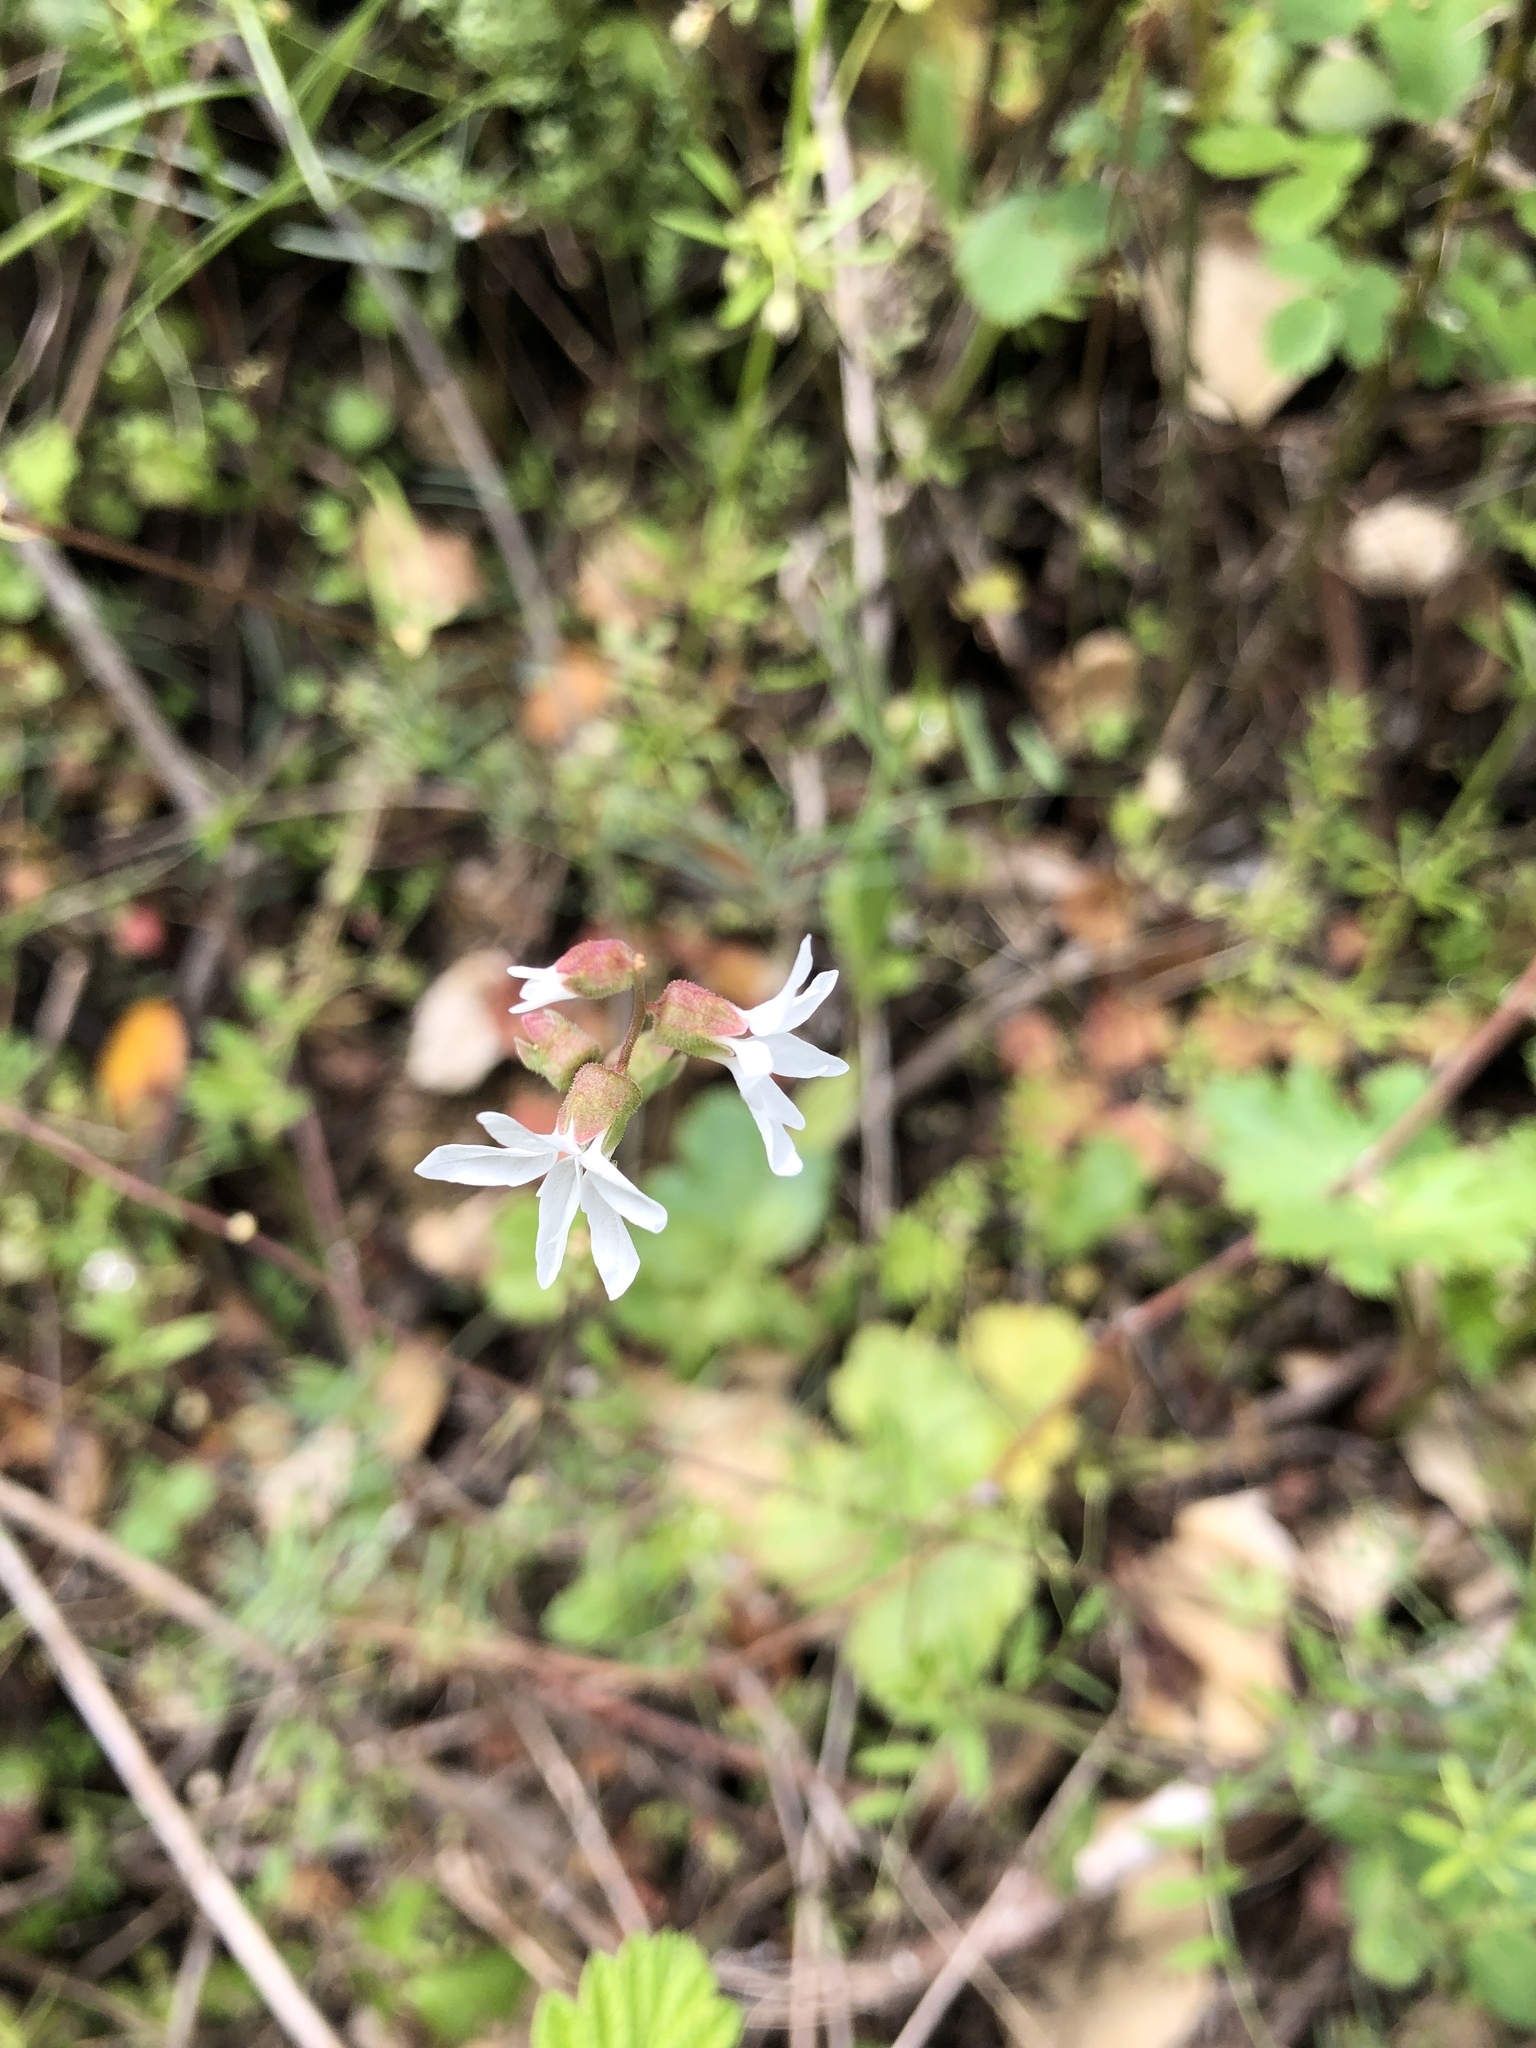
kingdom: Plantae
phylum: Tracheophyta
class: Magnoliopsida
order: Saxifragales
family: Saxifragaceae
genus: Lithophragma
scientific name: Lithophragma heterophyllum
